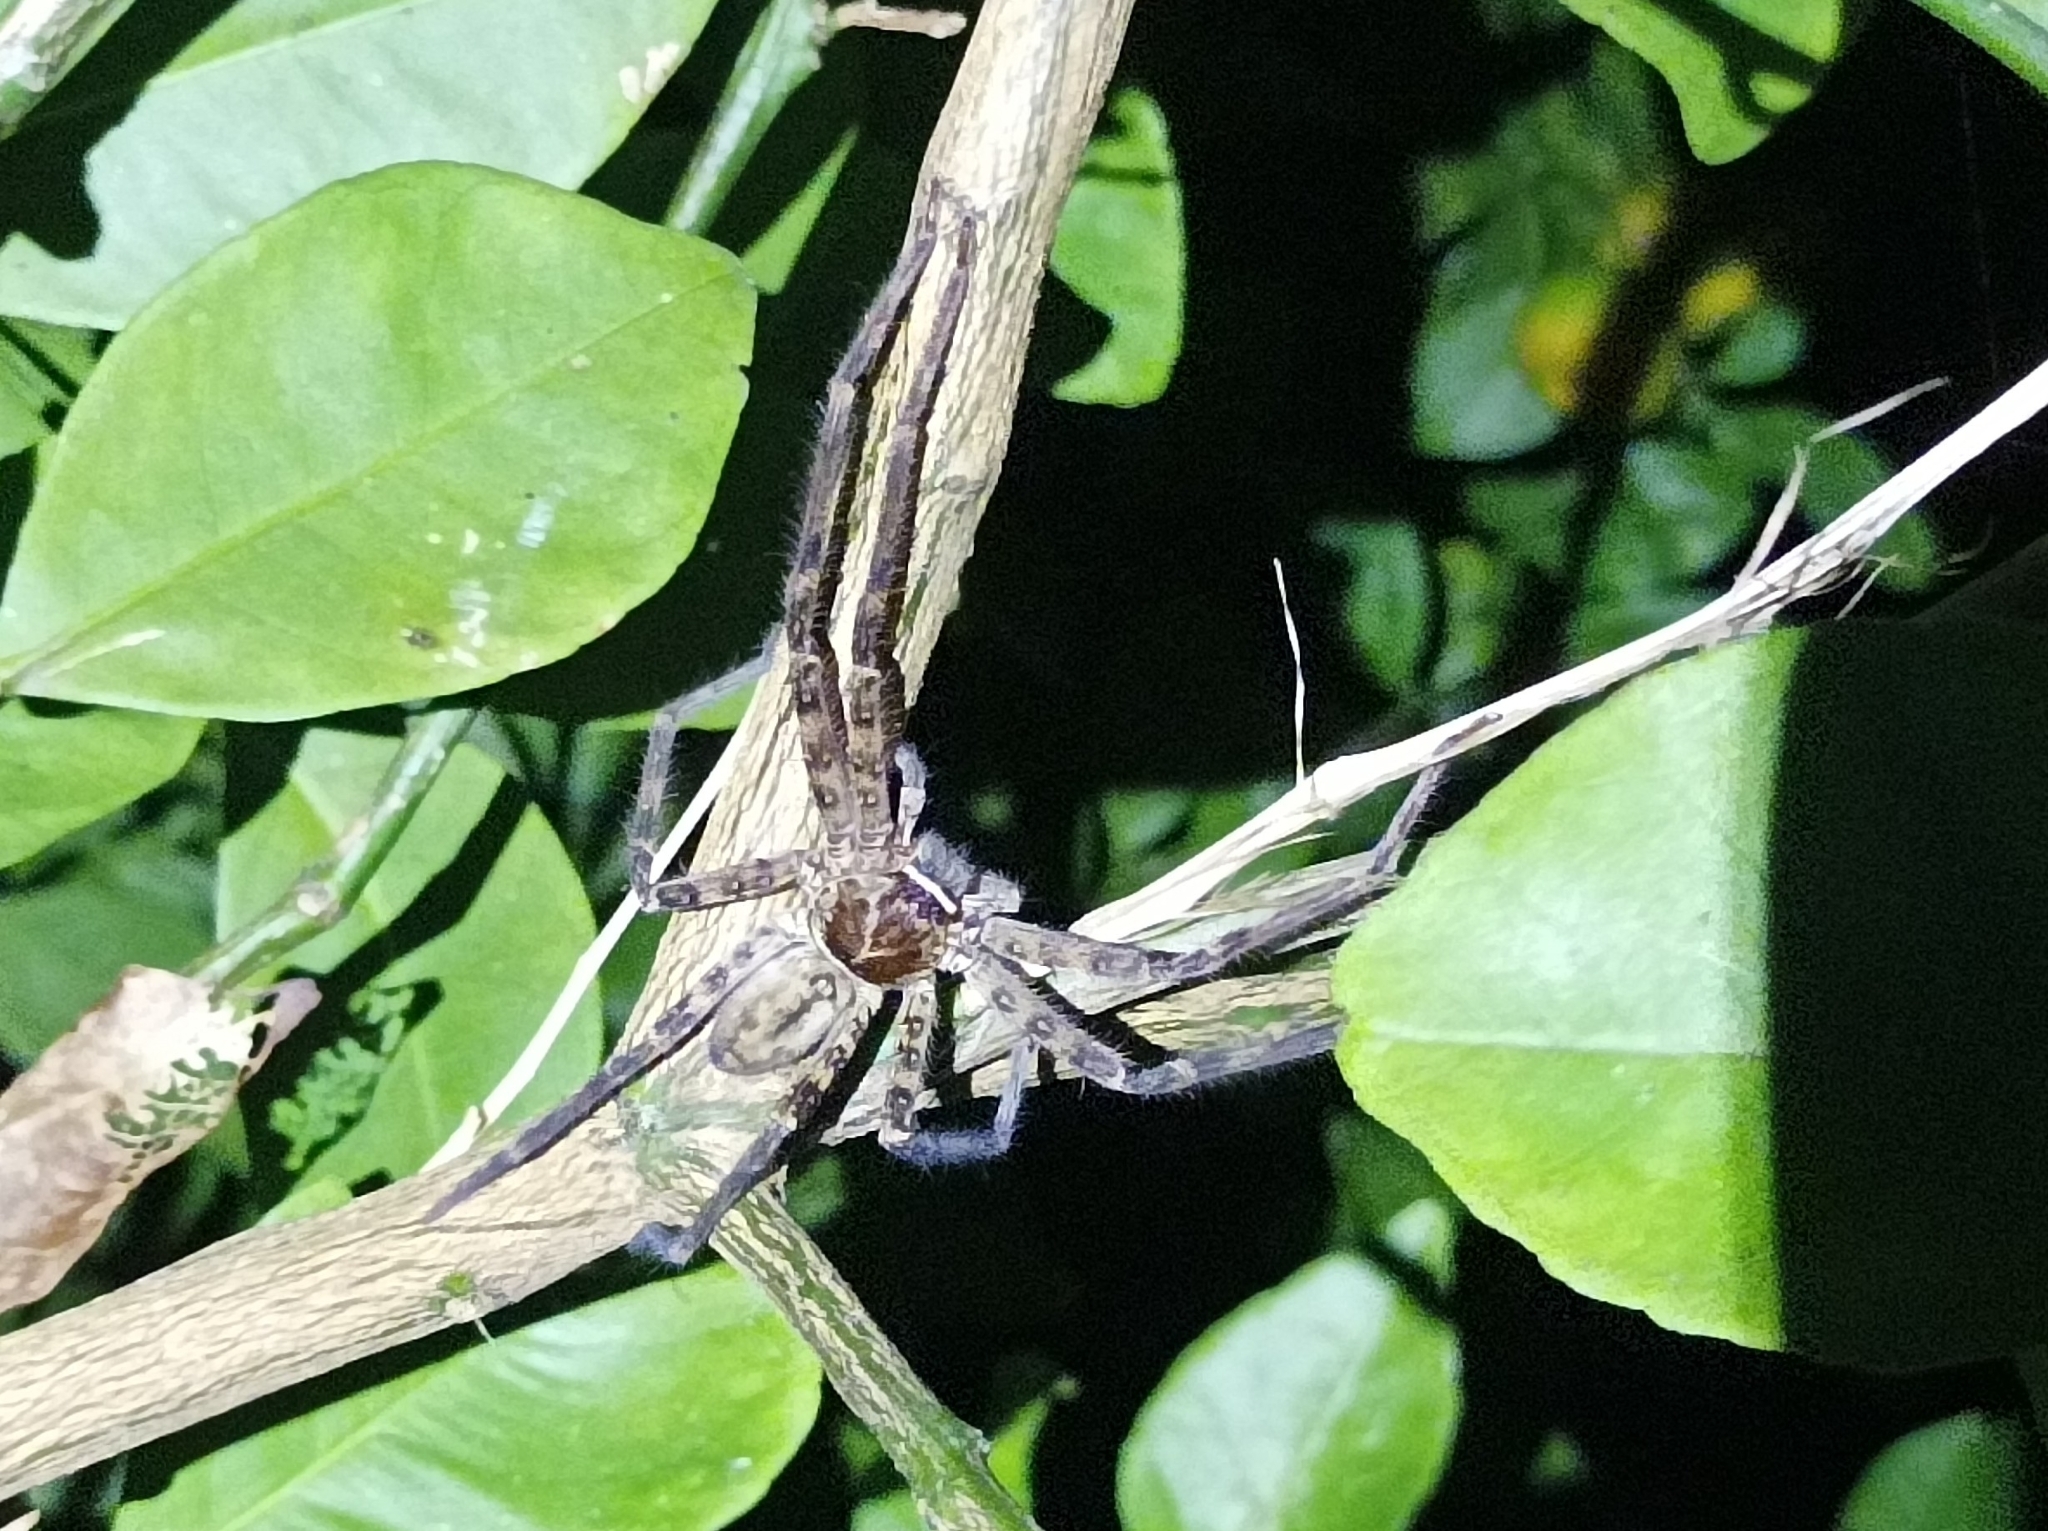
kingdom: Animalia
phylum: Arthropoda
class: Arachnida
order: Araneae
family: Sparassidae
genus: Heteropoda
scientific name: Heteropoda venatoria
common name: Huntsman spider
